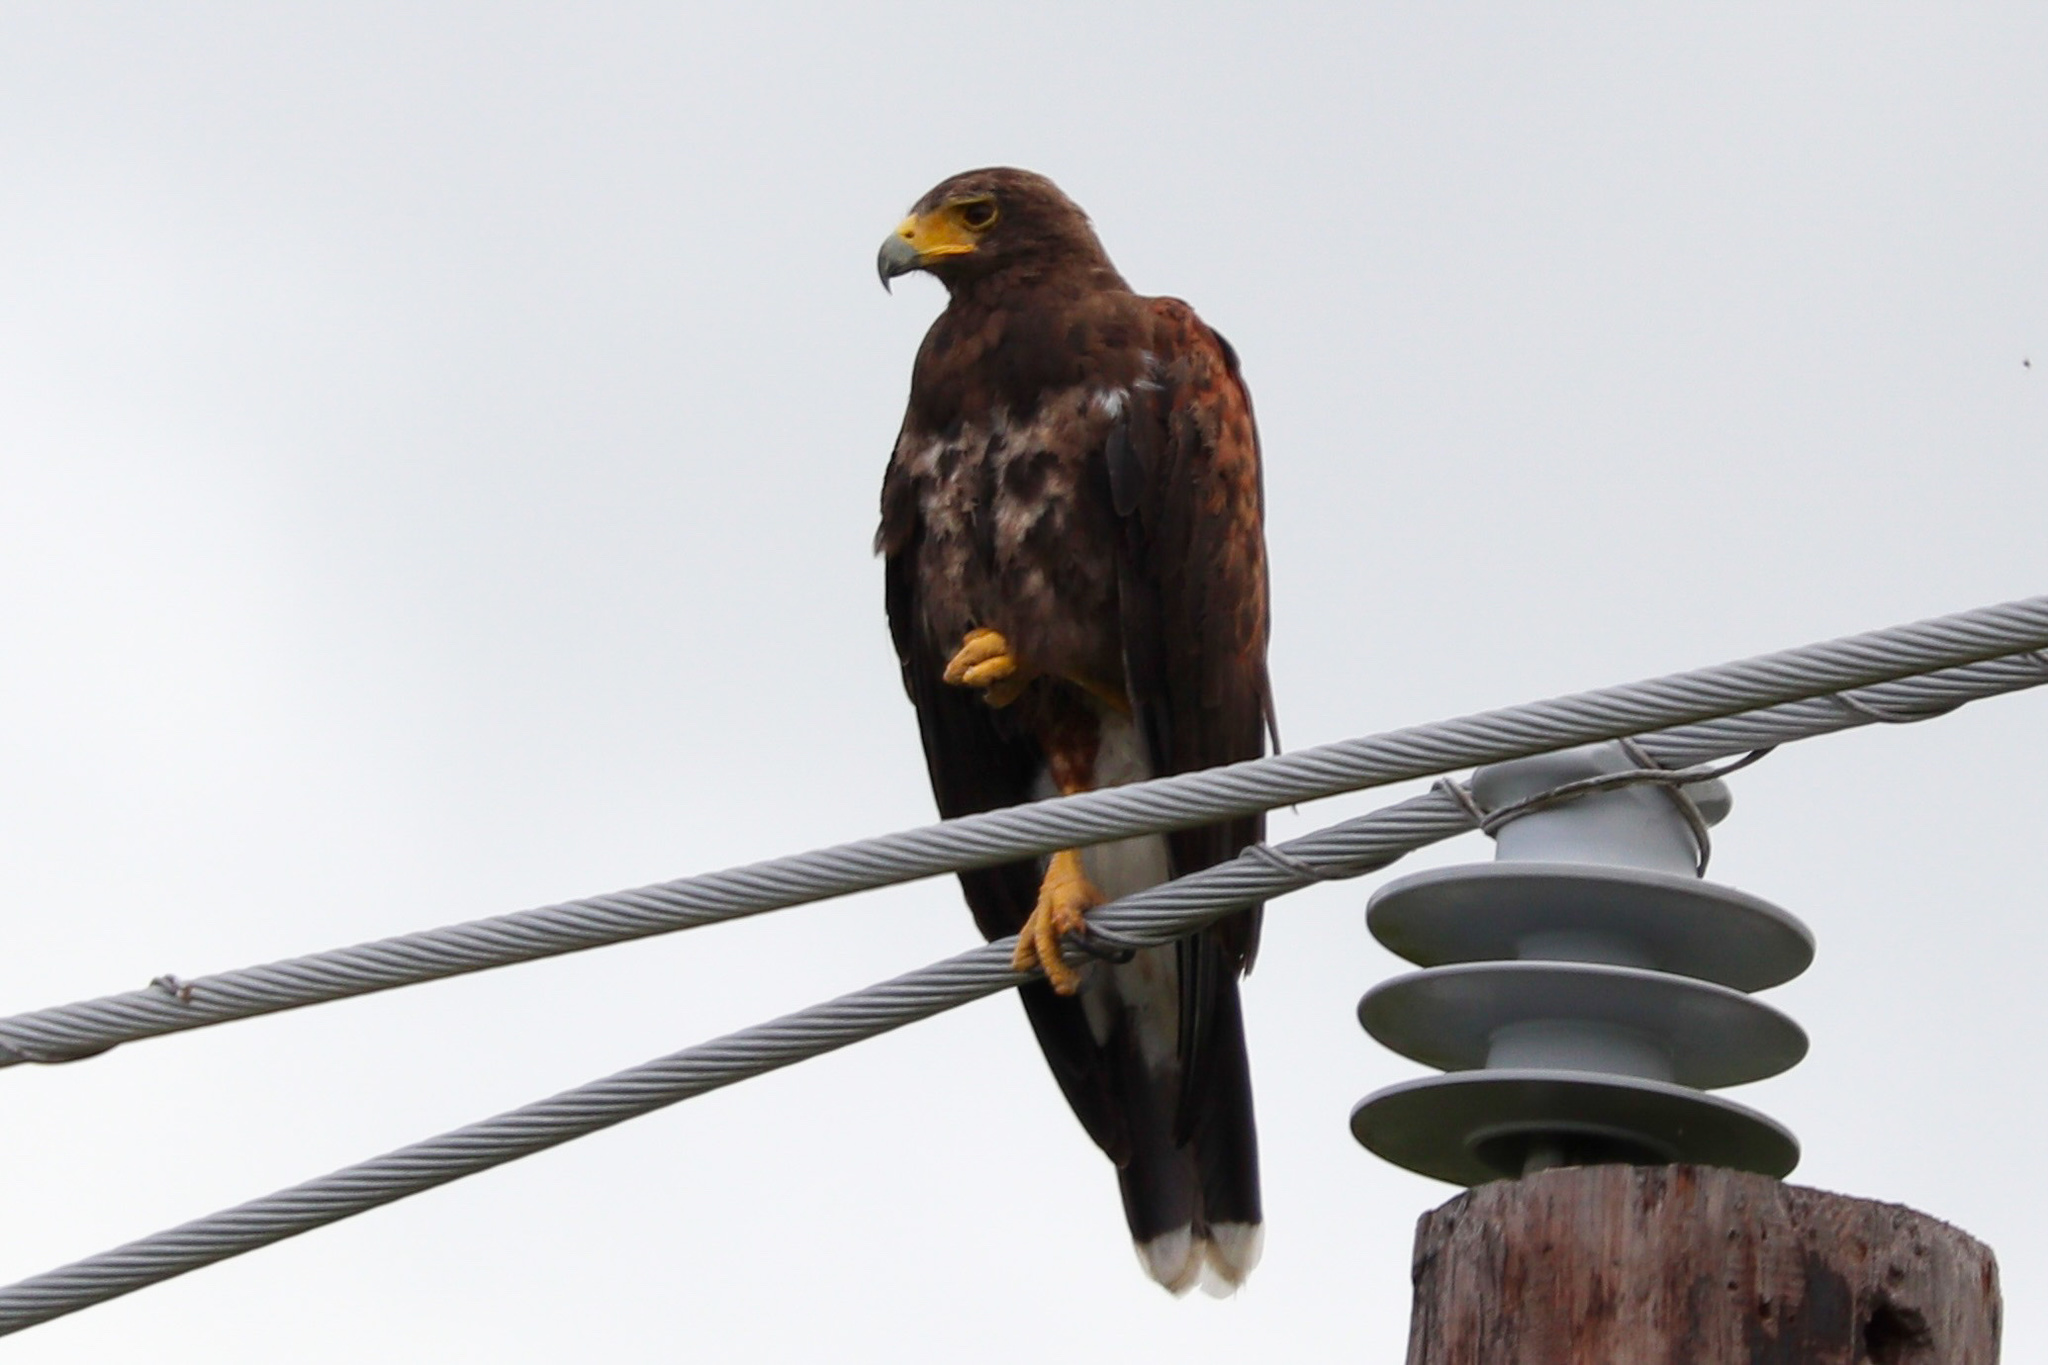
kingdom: Animalia
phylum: Chordata
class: Aves
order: Accipitriformes
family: Accipitridae
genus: Parabuteo
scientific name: Parabuteo unicinctus
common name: Harris's hawk
